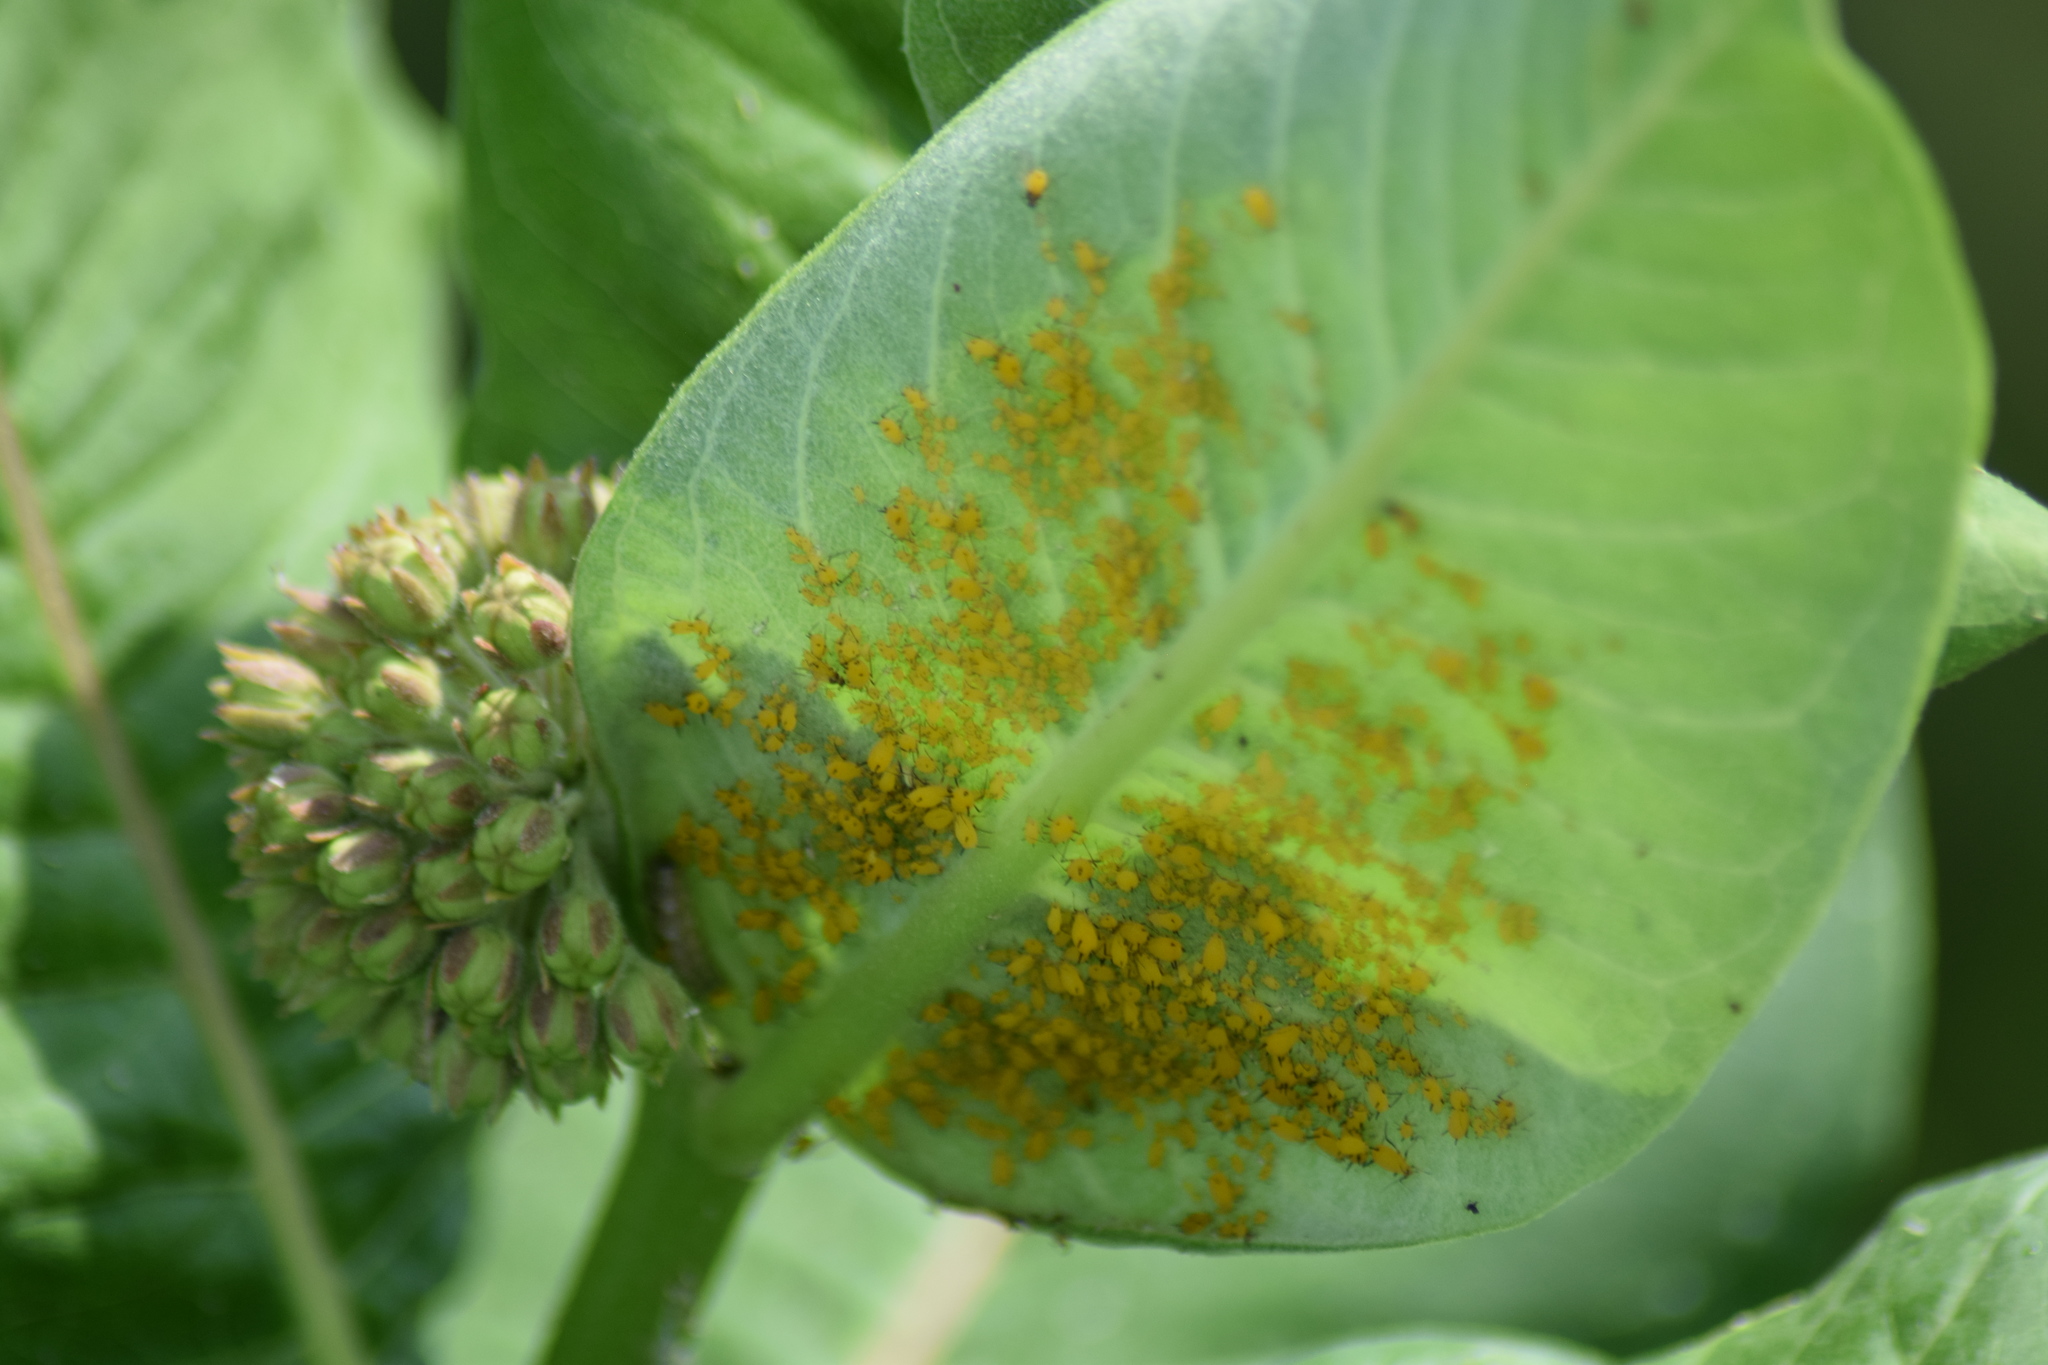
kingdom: Animalia
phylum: Arthropoda
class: Insecta
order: Hemiptera
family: Aphididae
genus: Aphis
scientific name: Aphis nerii
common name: Oleander aphid
